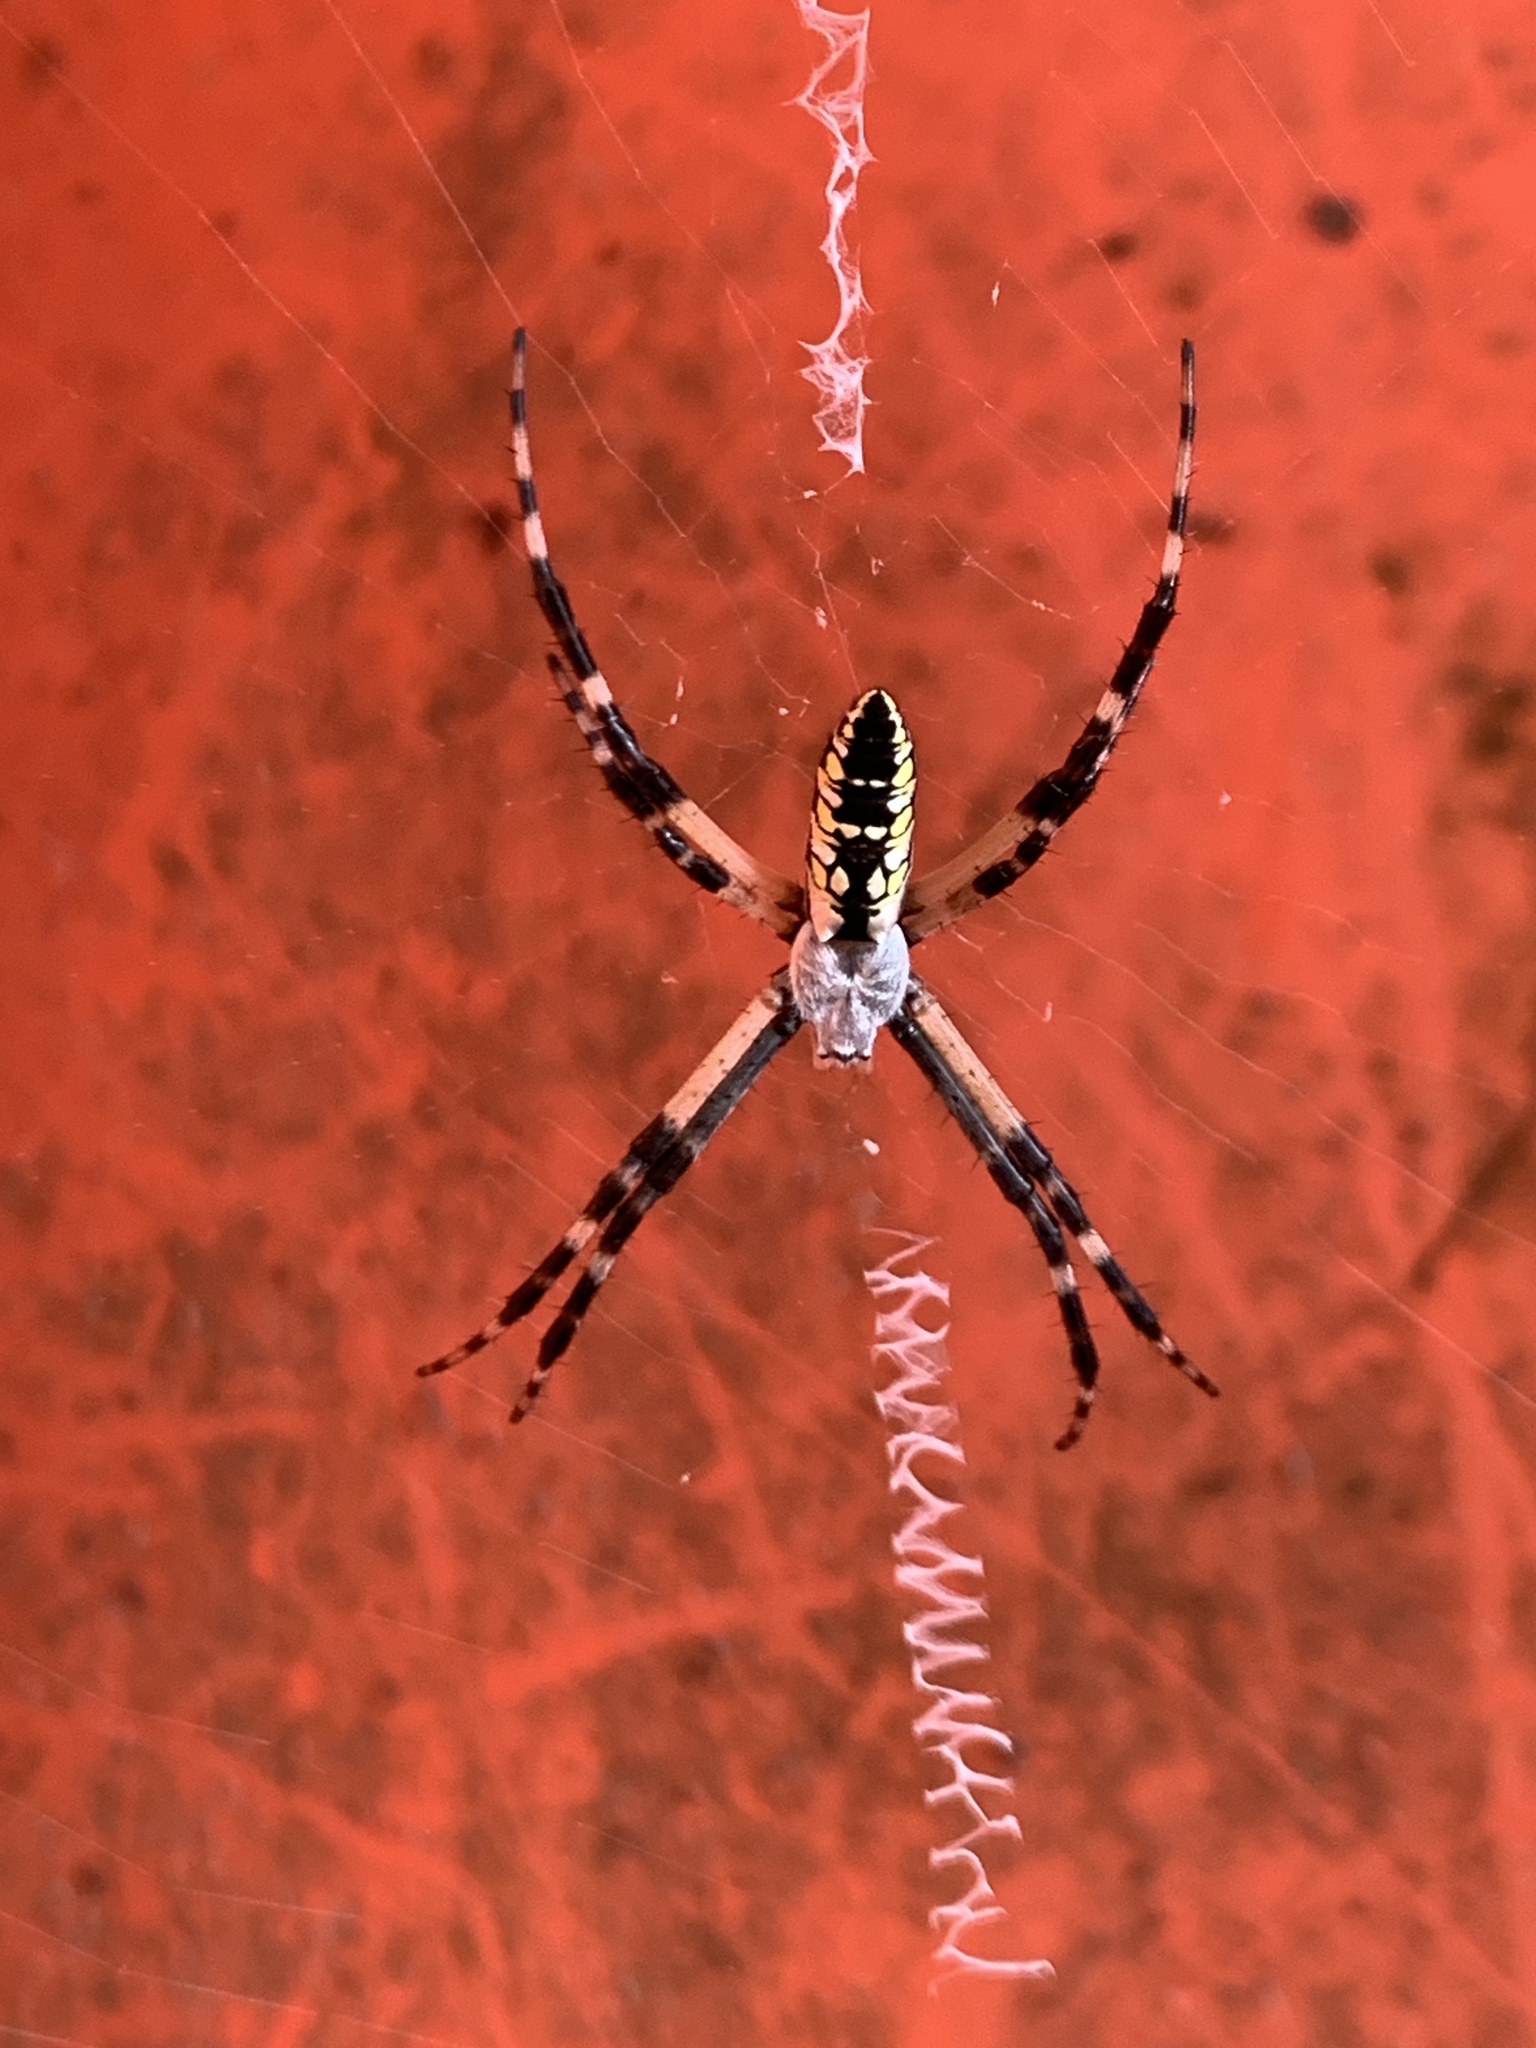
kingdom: Animalia
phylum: Arthropoda
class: Arachnida
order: Araneae
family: Araneidae
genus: Argiope
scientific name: Argiope aurantia
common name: Orb weavers
